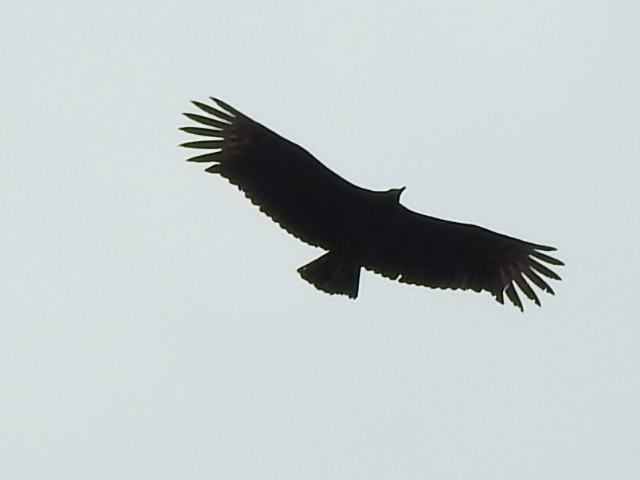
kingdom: Animalia
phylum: Chordata
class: Aves
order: Accipitriformes
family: Cathartidae
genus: Coragyps
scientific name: Coragyps atratus
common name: Black vulture
